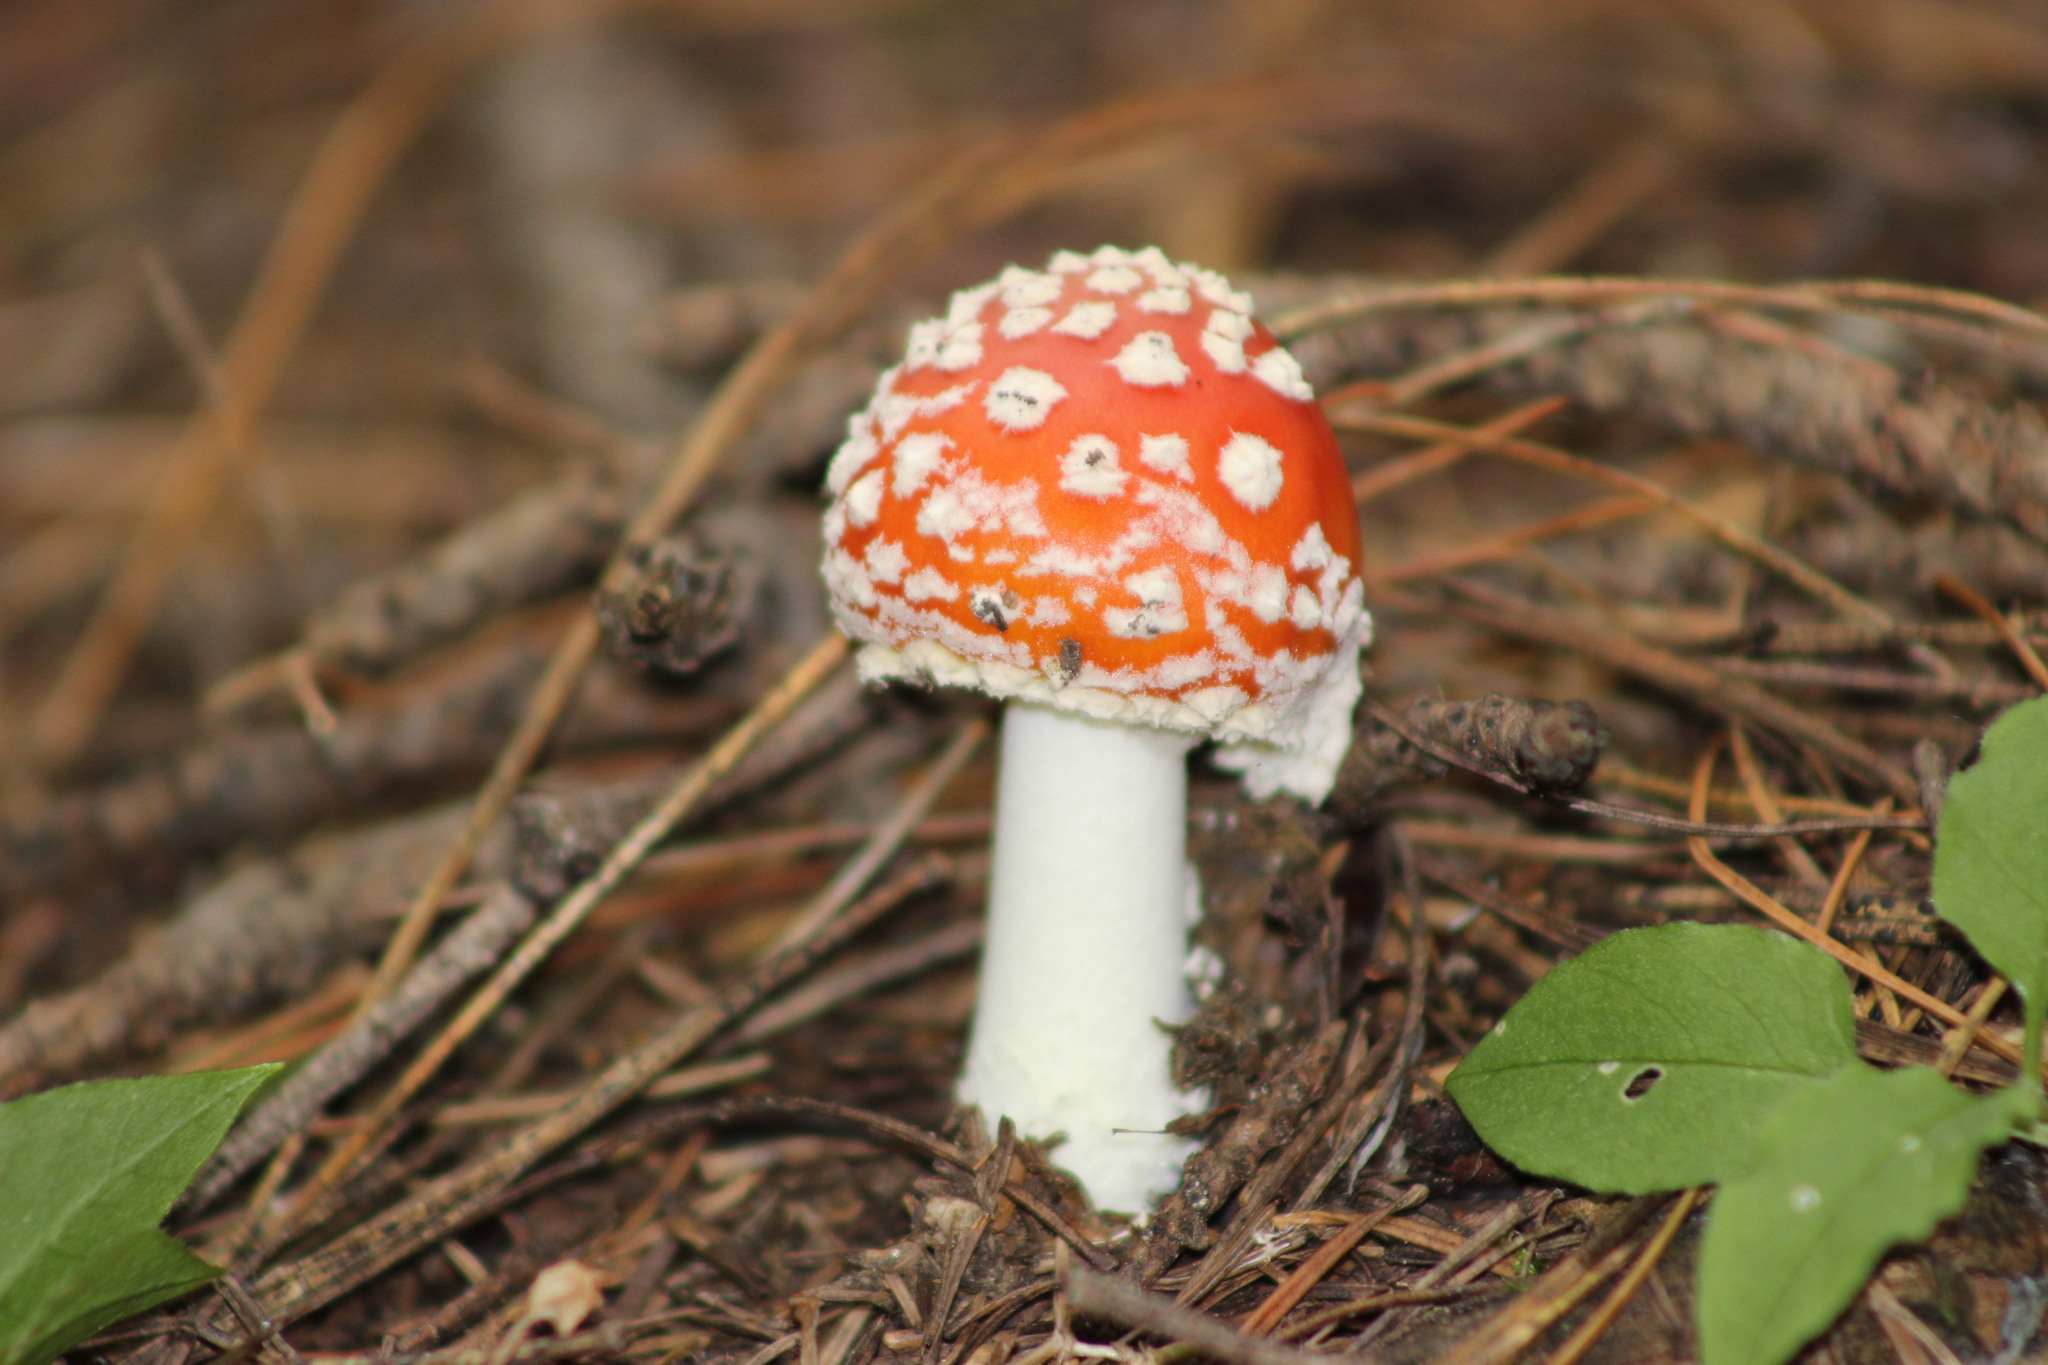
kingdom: Fungi
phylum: Basidiomycota
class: Agaricomycetes
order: Agaricales
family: Amanitaceae
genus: Amanita
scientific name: Amanita muscaria
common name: Fly agaric
